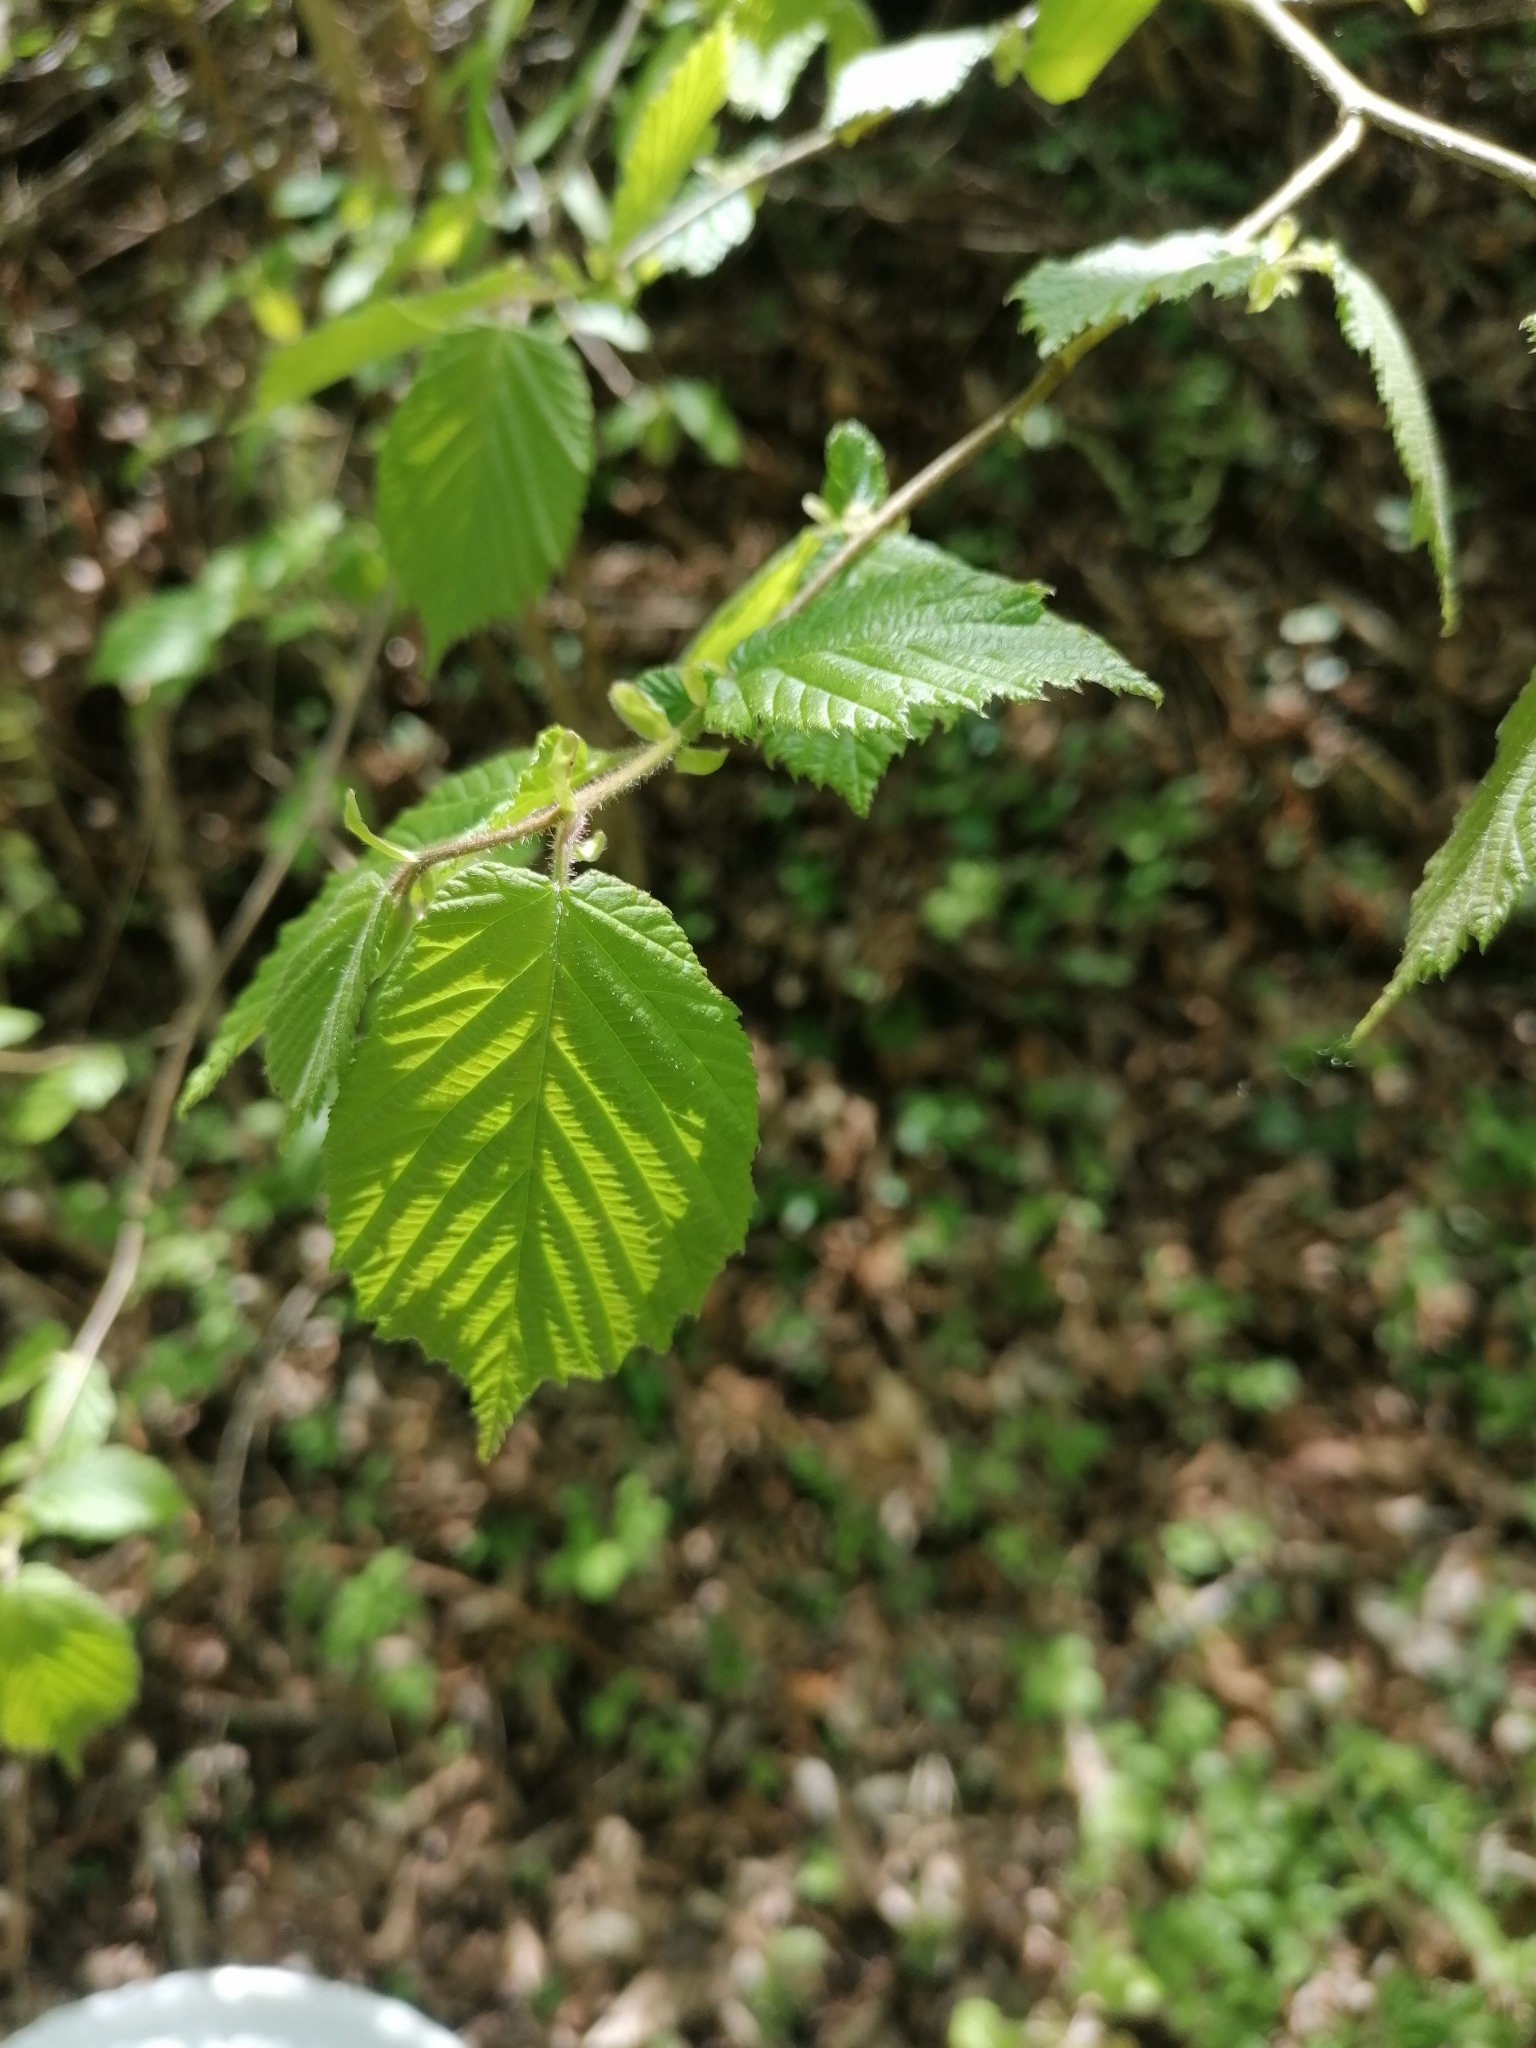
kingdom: Plantae
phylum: Tracheophyta
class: Magnoliopsida
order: Fagales
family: Betulaceae
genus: Corylus
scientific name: Corylus avellana
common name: European hazel
